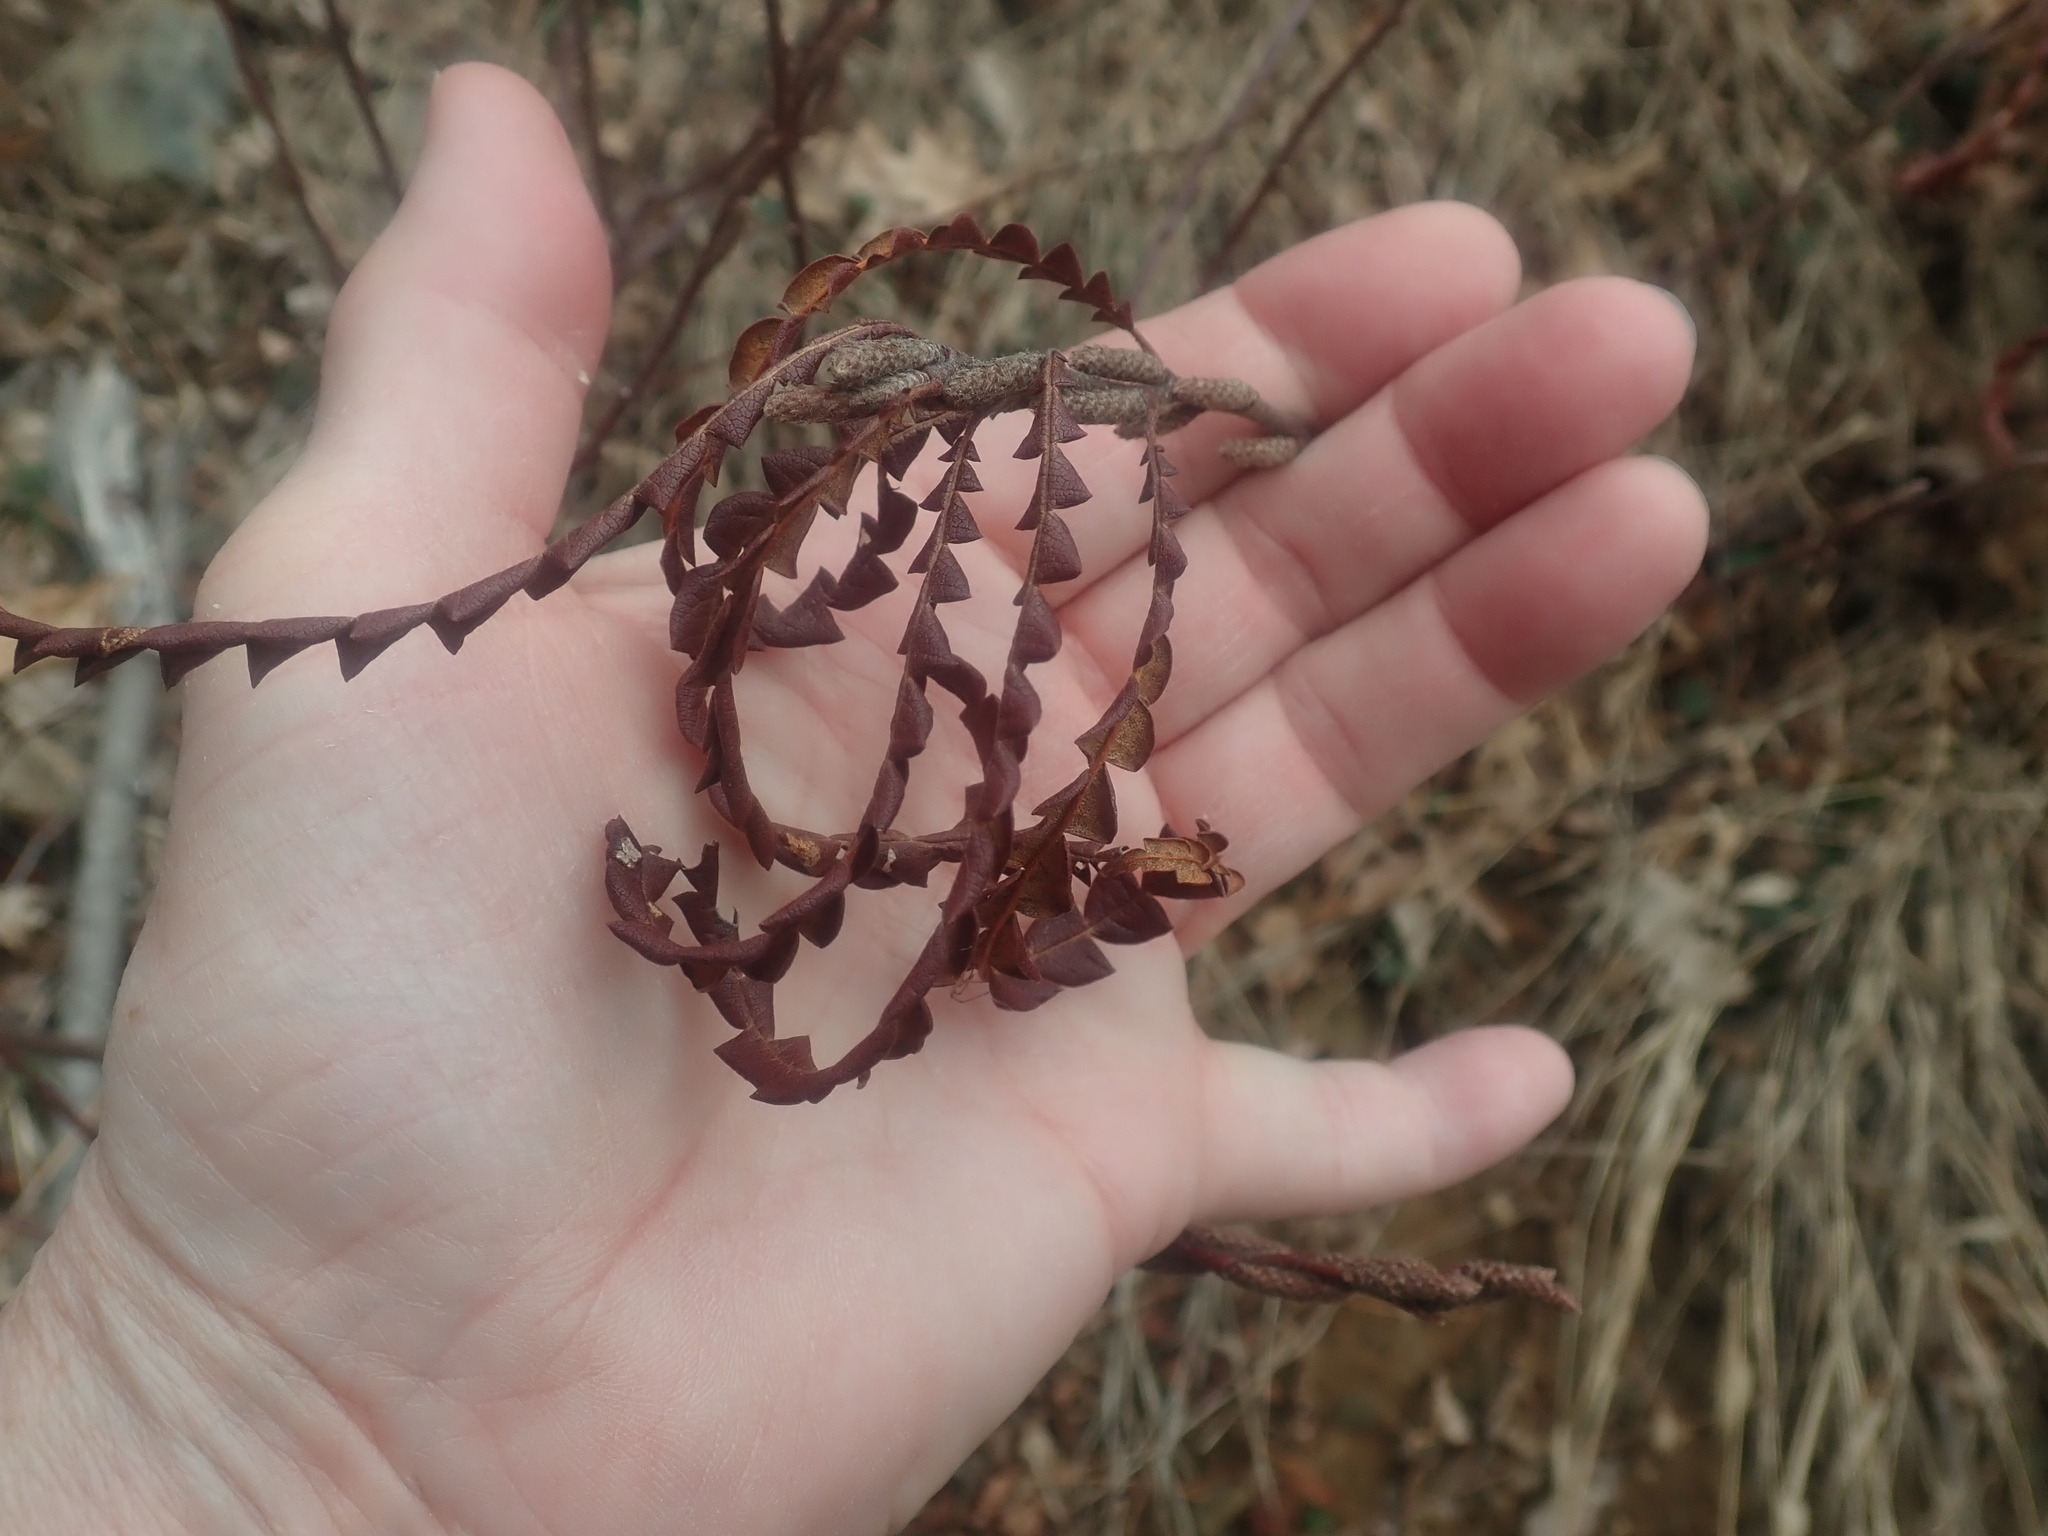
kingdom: Plantae
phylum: Tracheophyta
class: Magnoliopsida
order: Fagales
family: Myricaceae
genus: Comptonia
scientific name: Comptonia peregrina
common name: Sweet-fern
